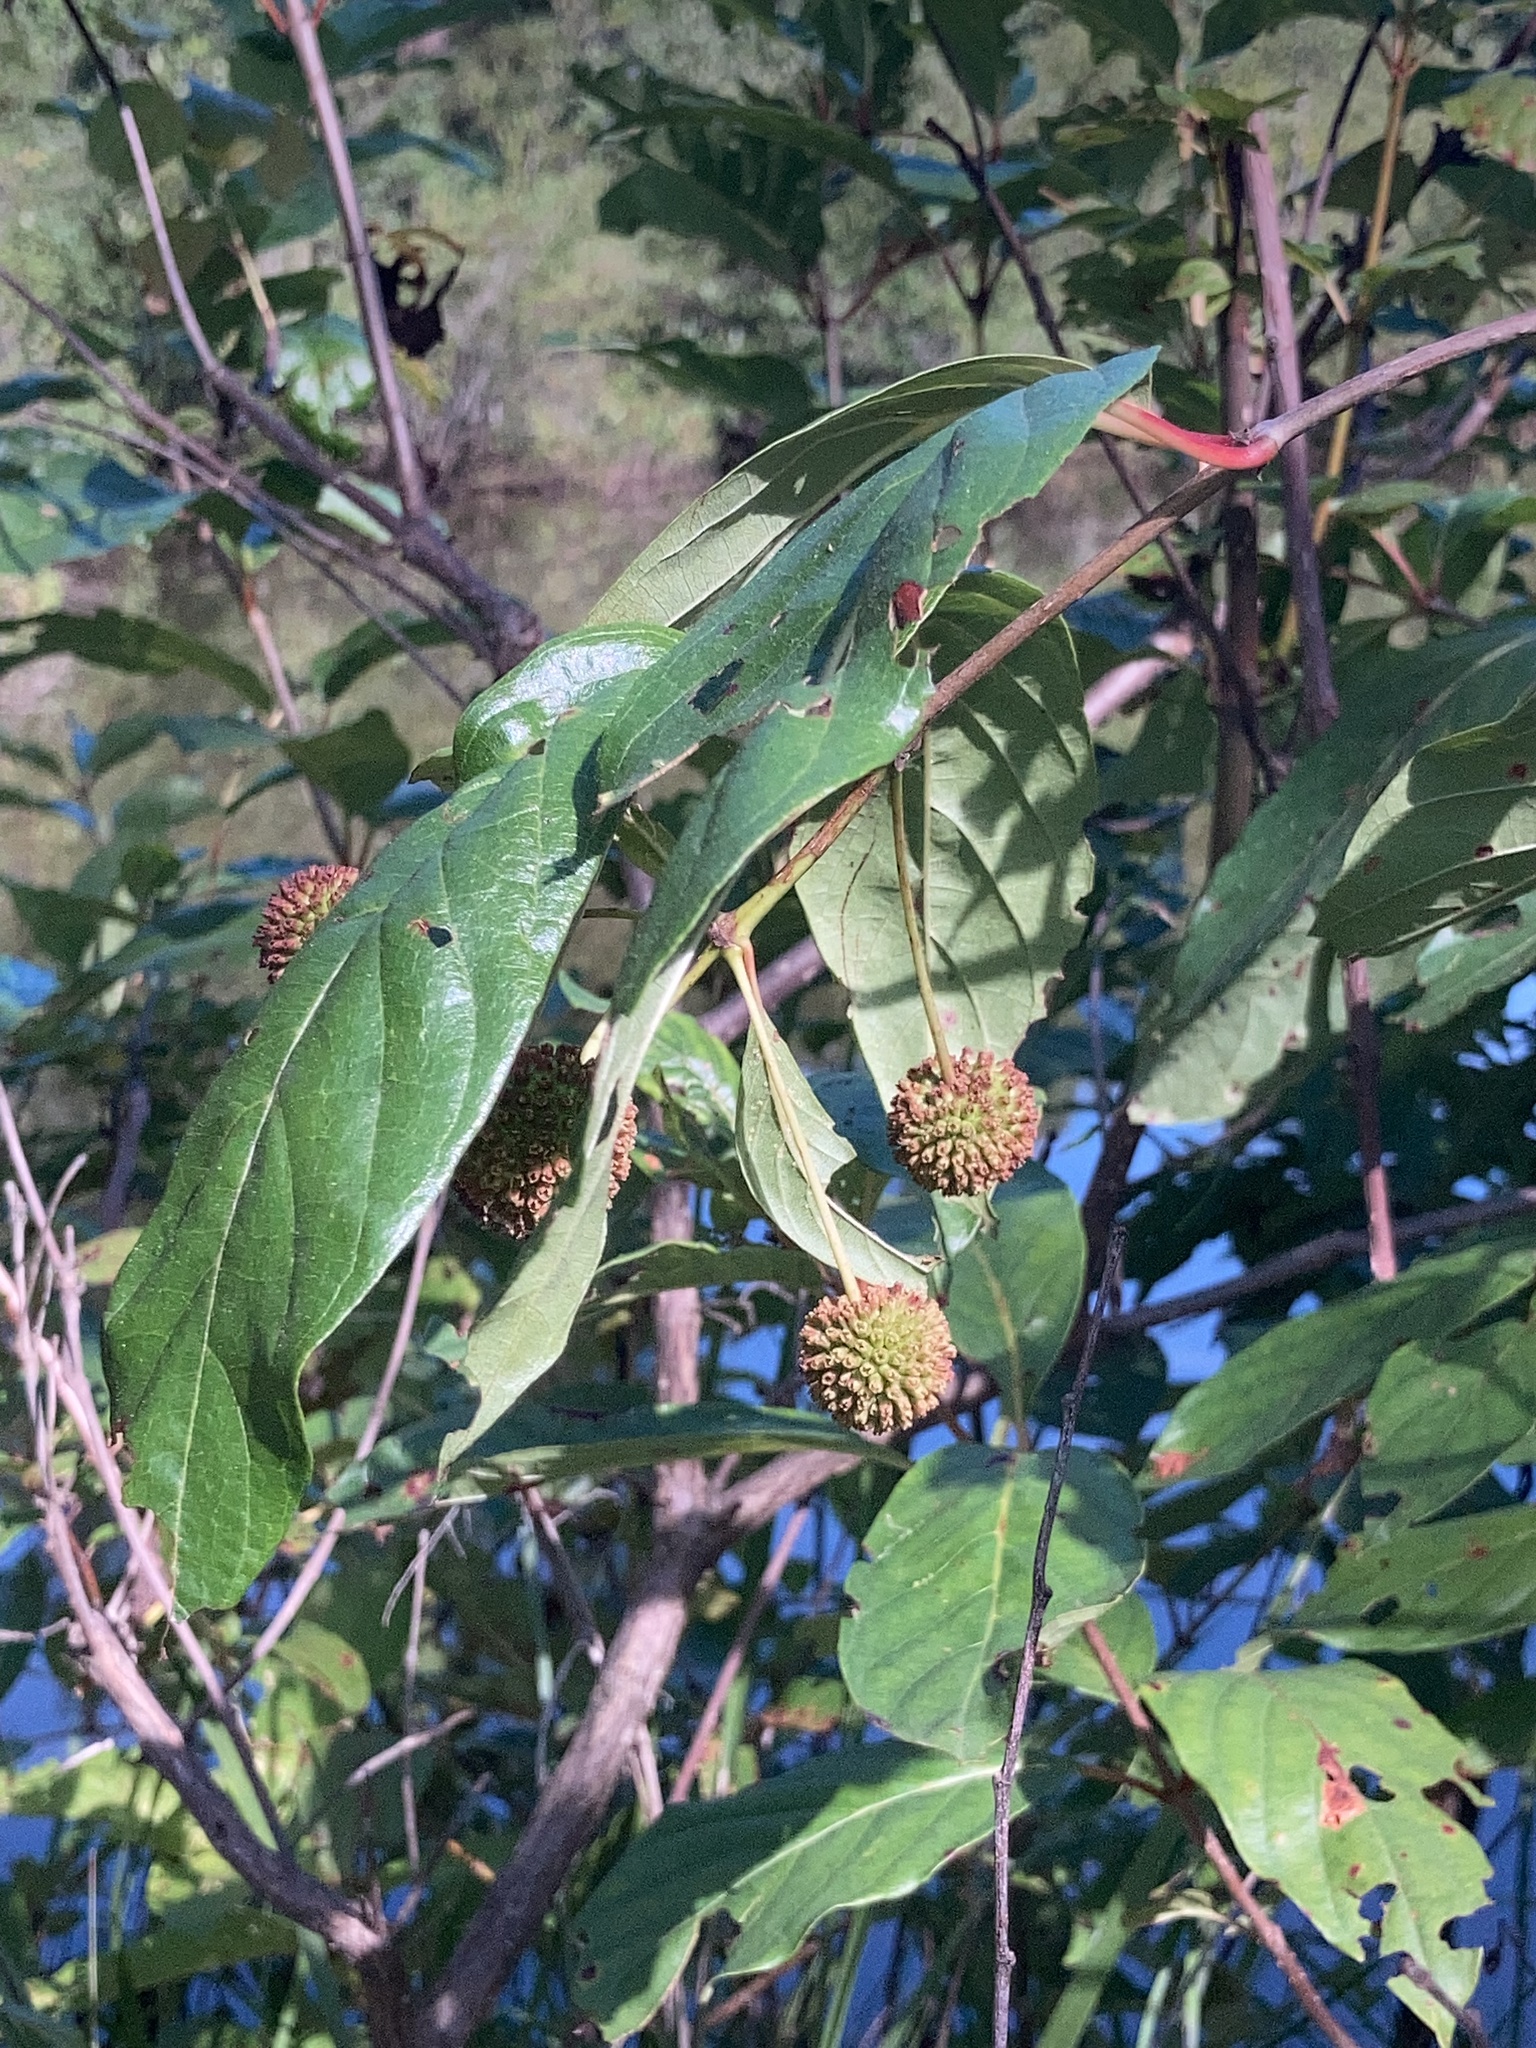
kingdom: Plantae
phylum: Tracheophyta
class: Magnoliopsida
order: Gentianales
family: Rubiaceae
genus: Cephalanthus
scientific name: Cephalanthus occidentalis
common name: Button-willow
